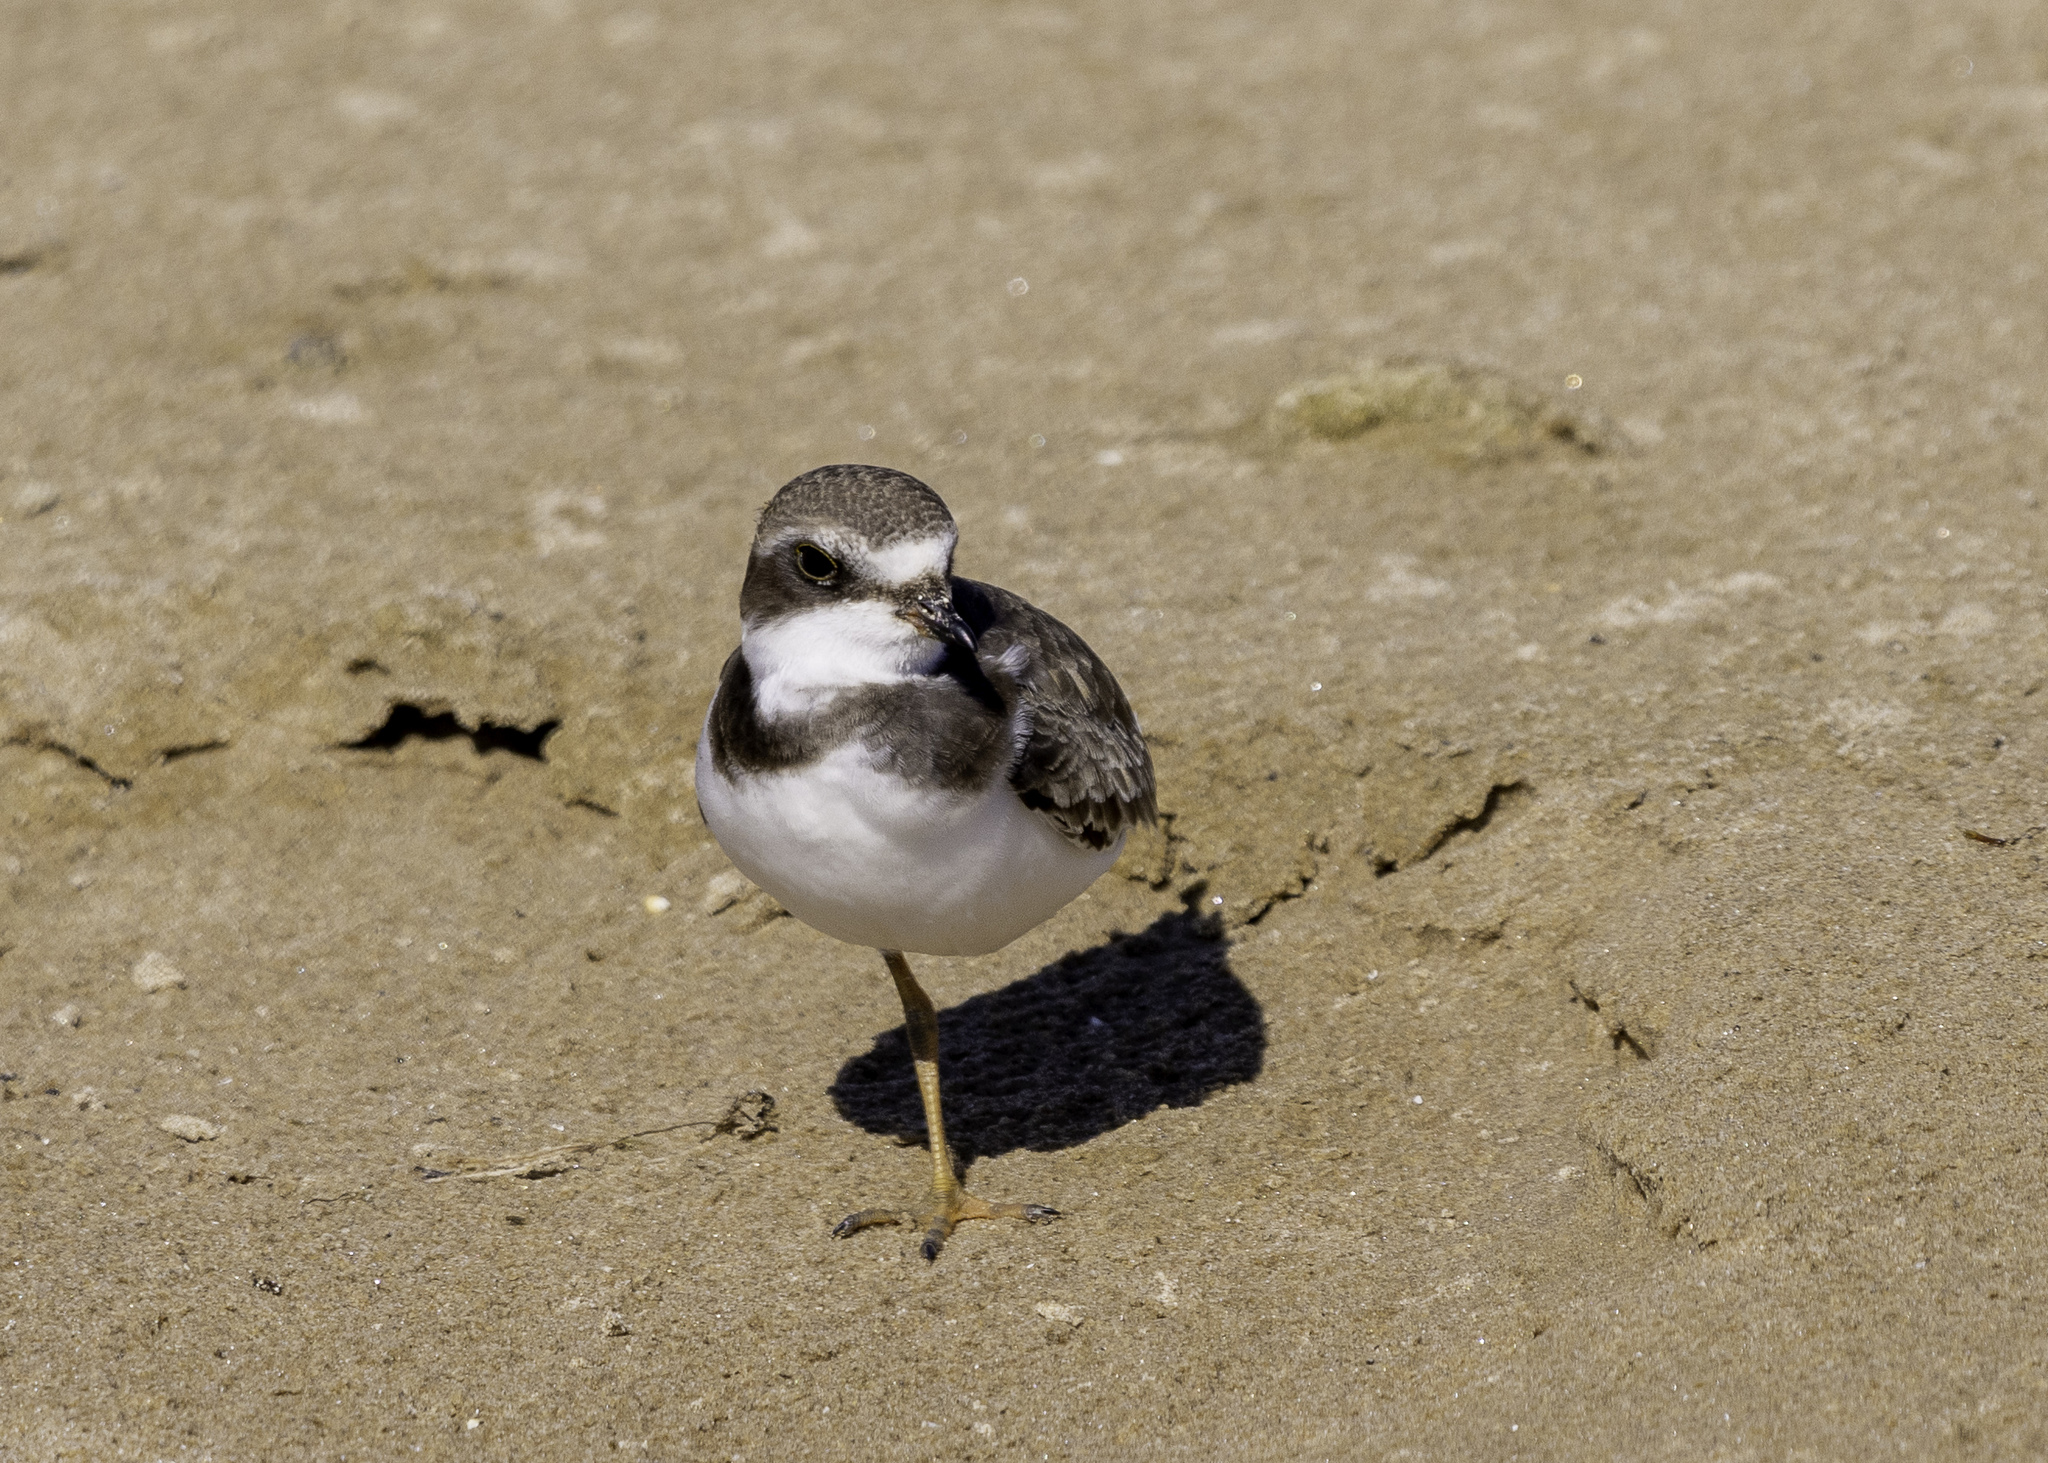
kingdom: Animalia
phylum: Chordata
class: Aves
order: Charadriiformes
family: Charadriidae
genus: Charadrius
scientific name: Charadrius semipalmatus
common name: Semipalmated plover
